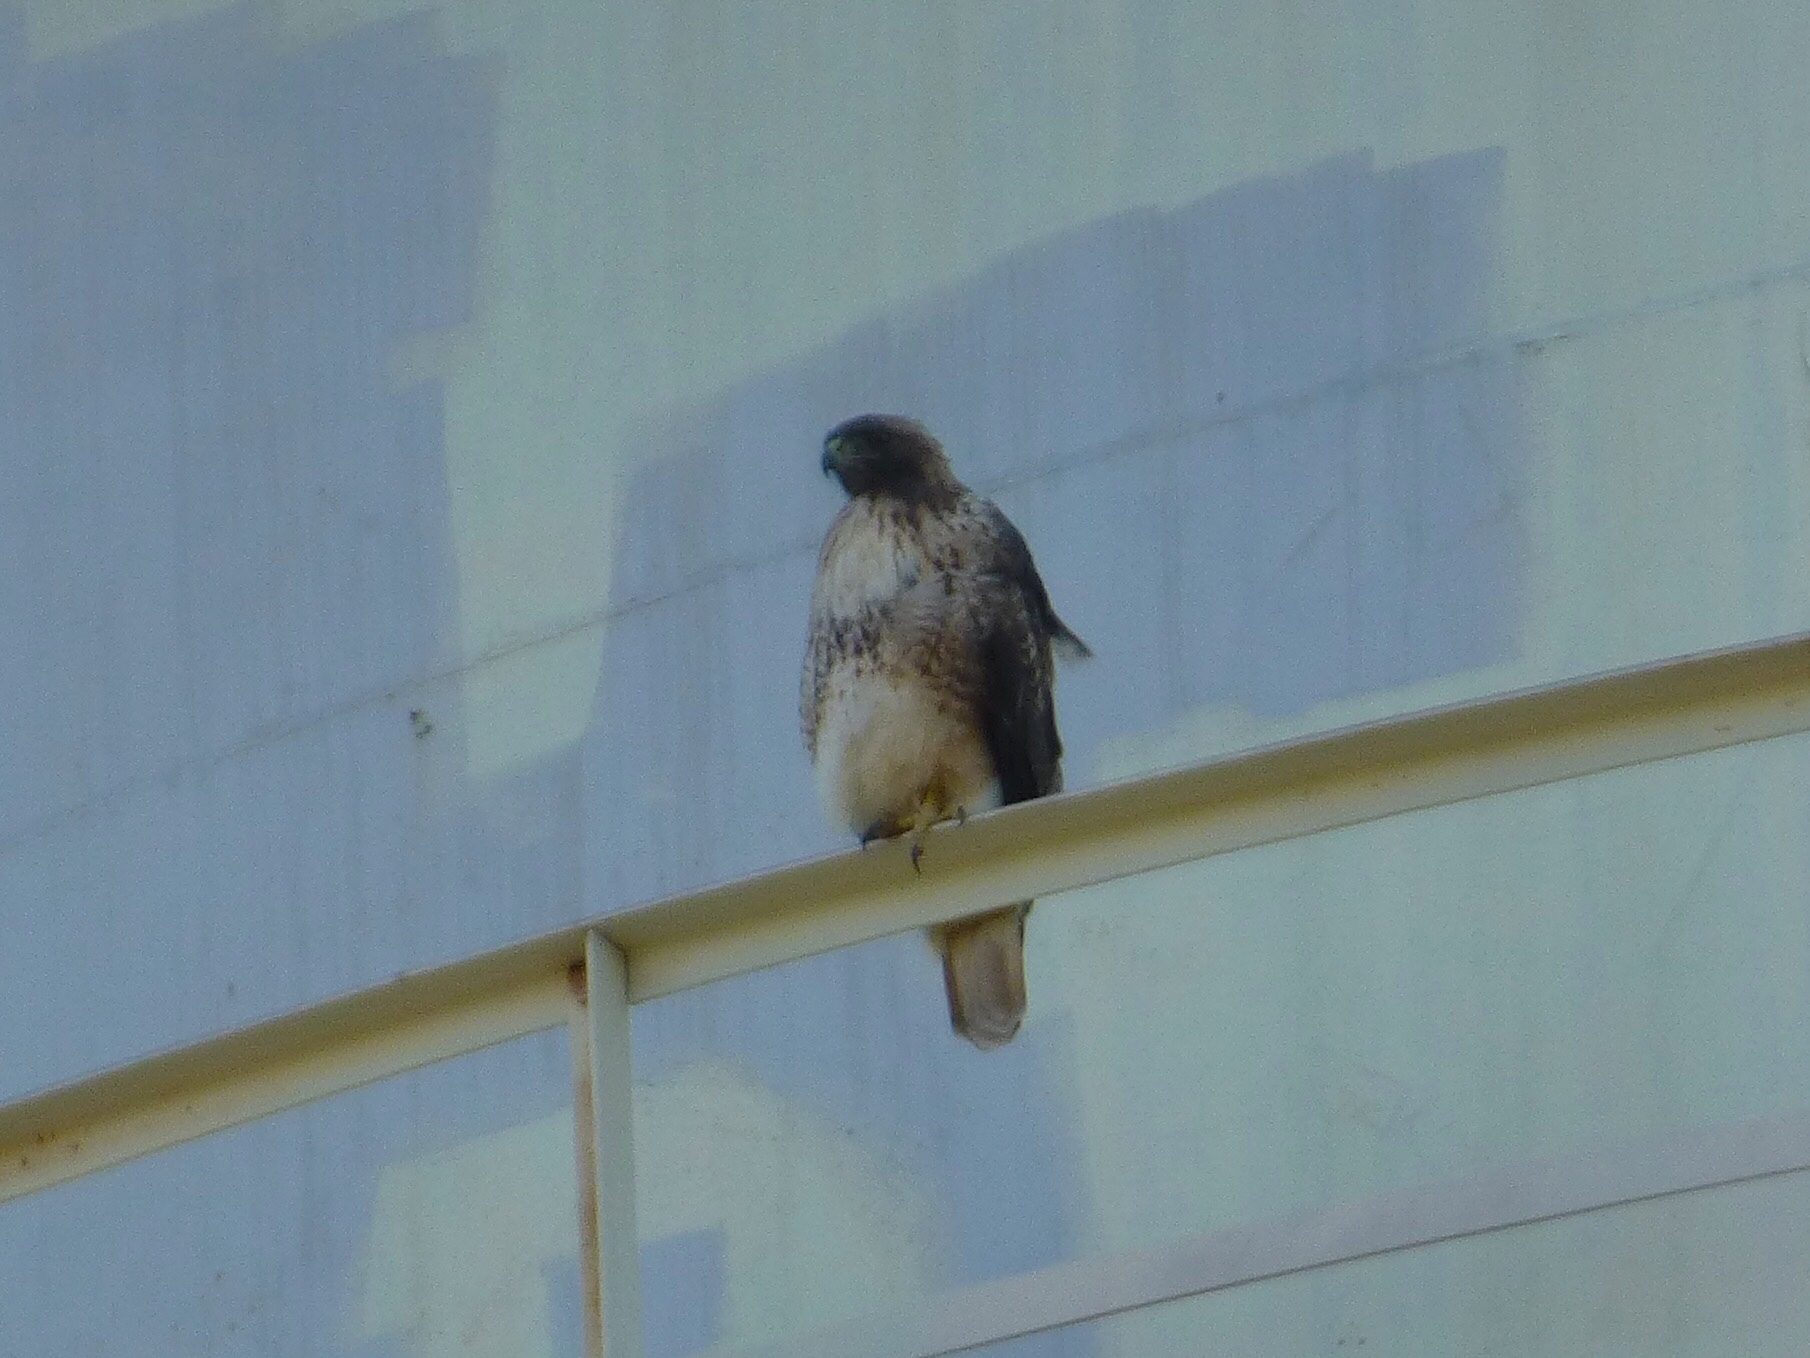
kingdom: Animalia
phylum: Chordata
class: Aves
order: Accipitriformes
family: Accipitridae
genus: Buteo
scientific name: Buteo jamaicensis
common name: Red-tailed hawk
